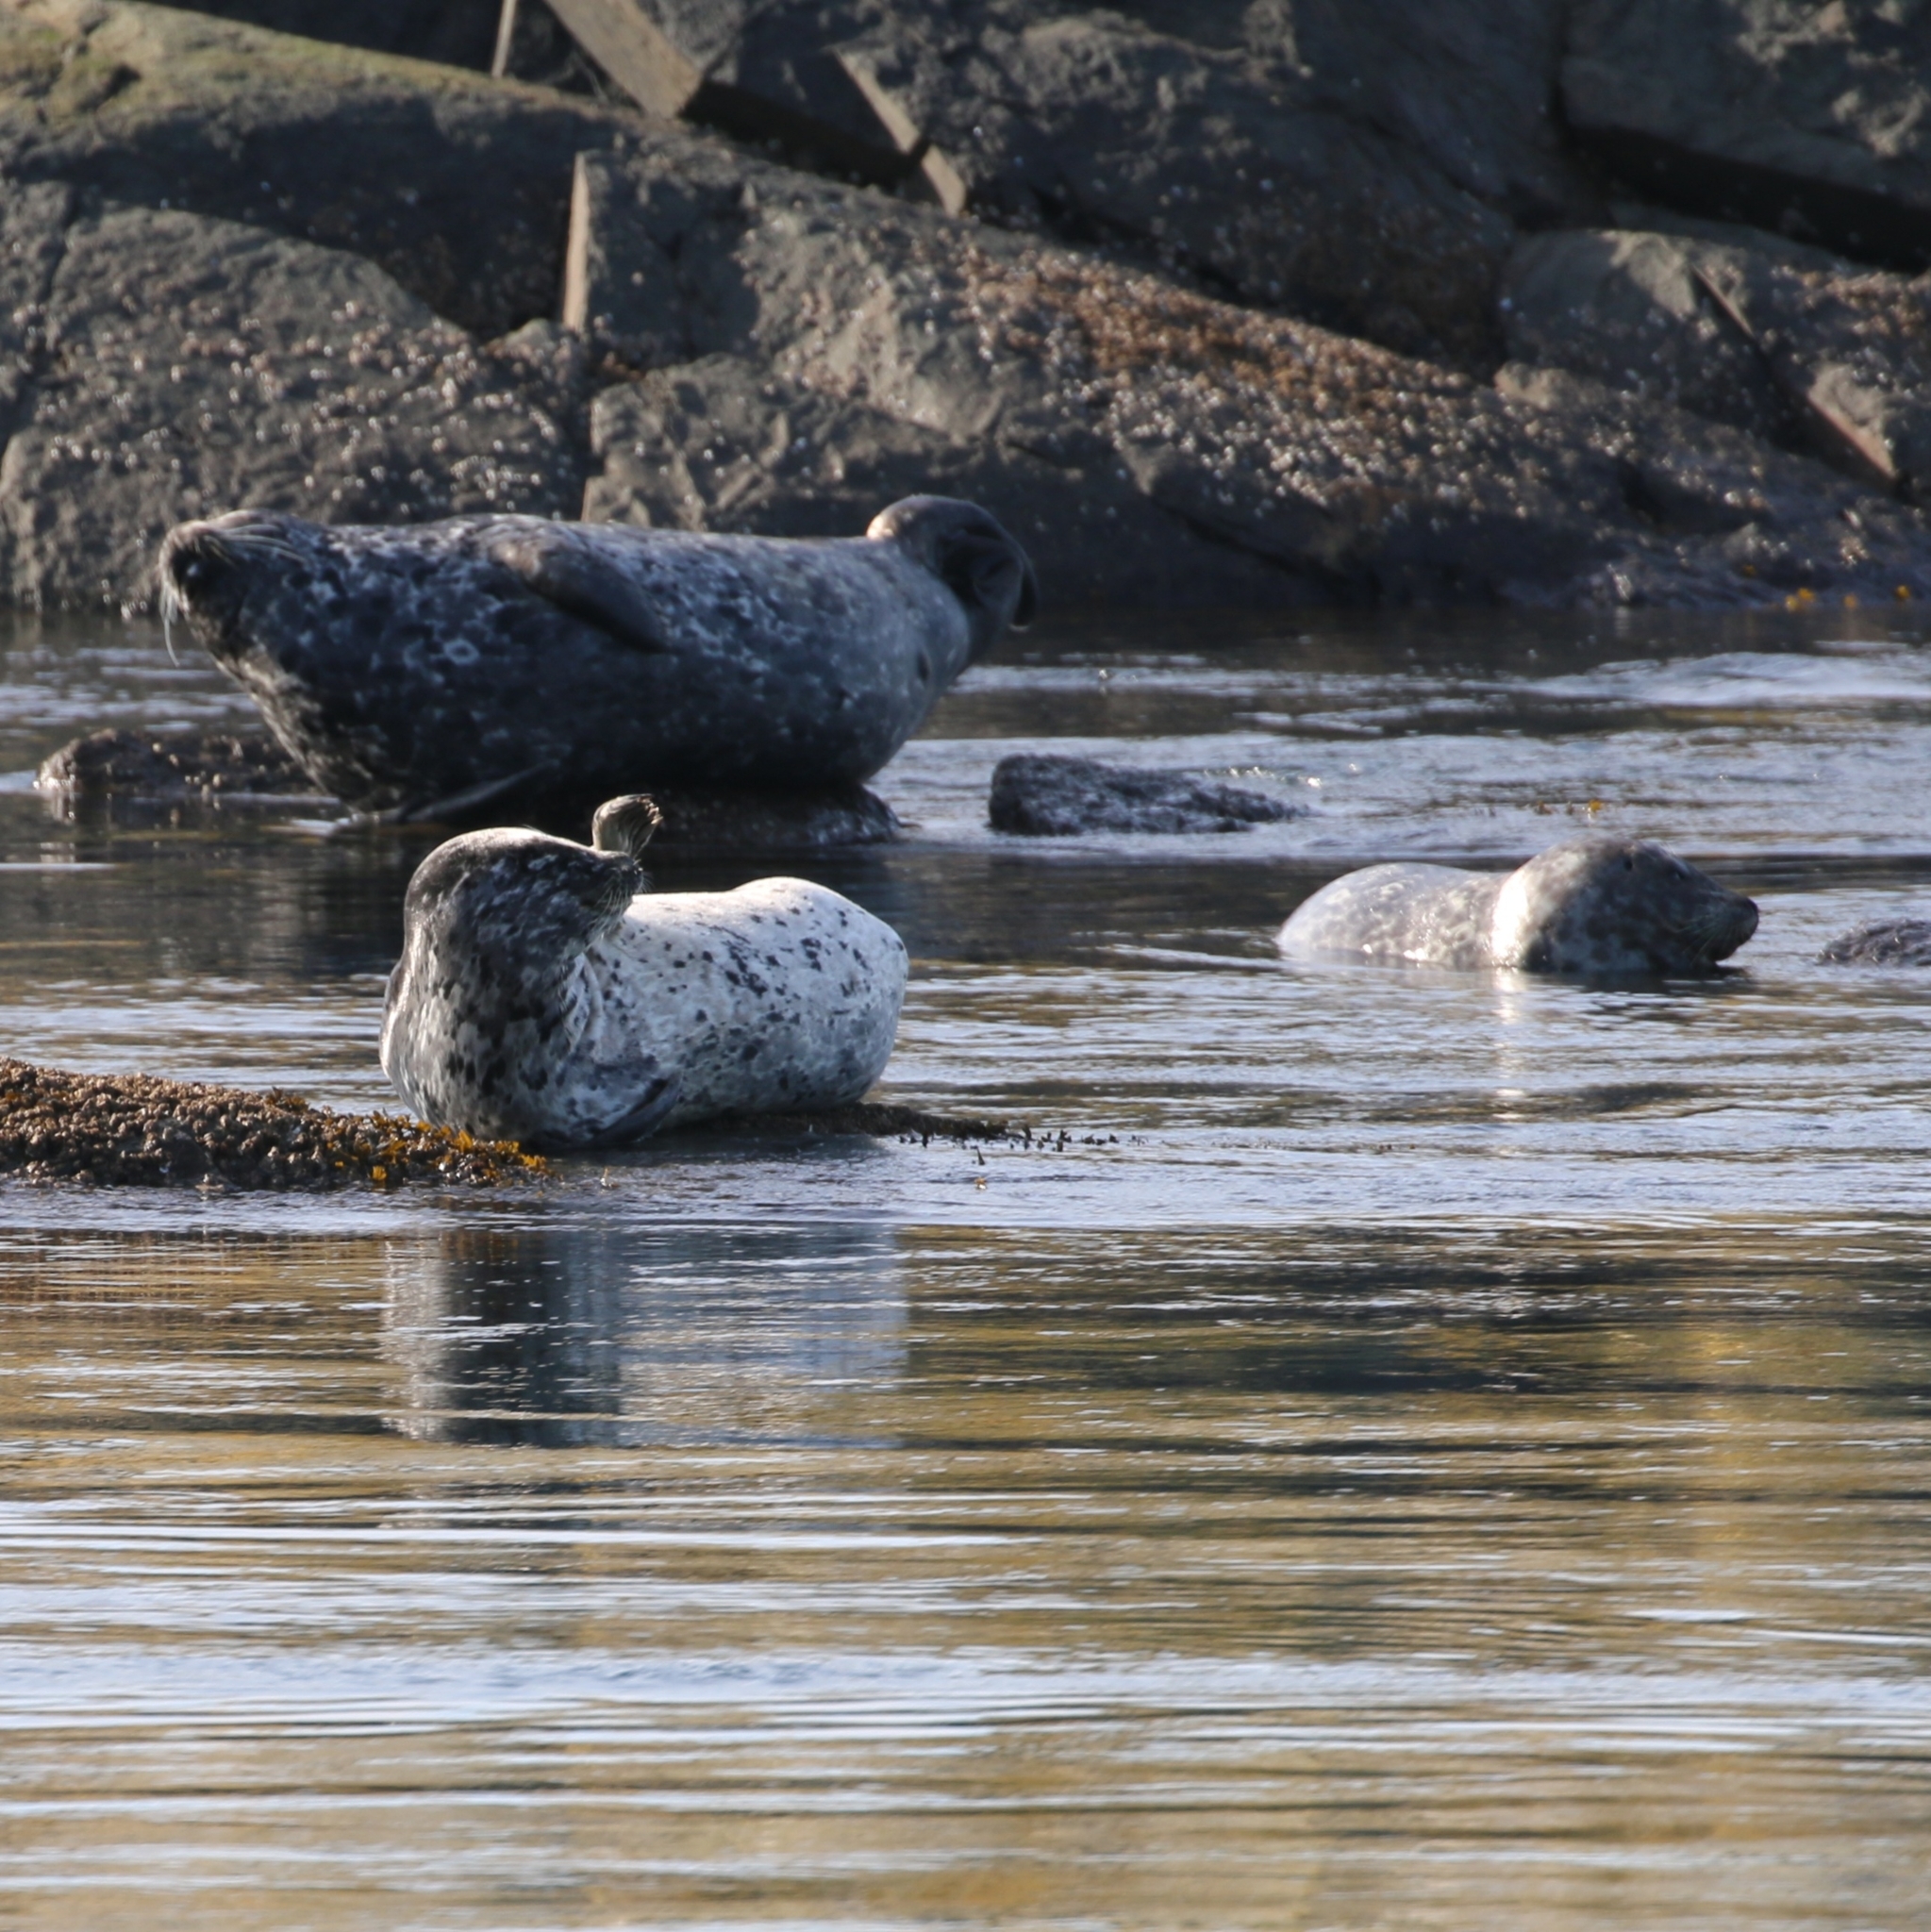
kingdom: Animalia
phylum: Chordata
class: Mammalia
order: Carnivora
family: Phocidae
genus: Phoca
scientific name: Phoca vitulina
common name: Harbor seal
